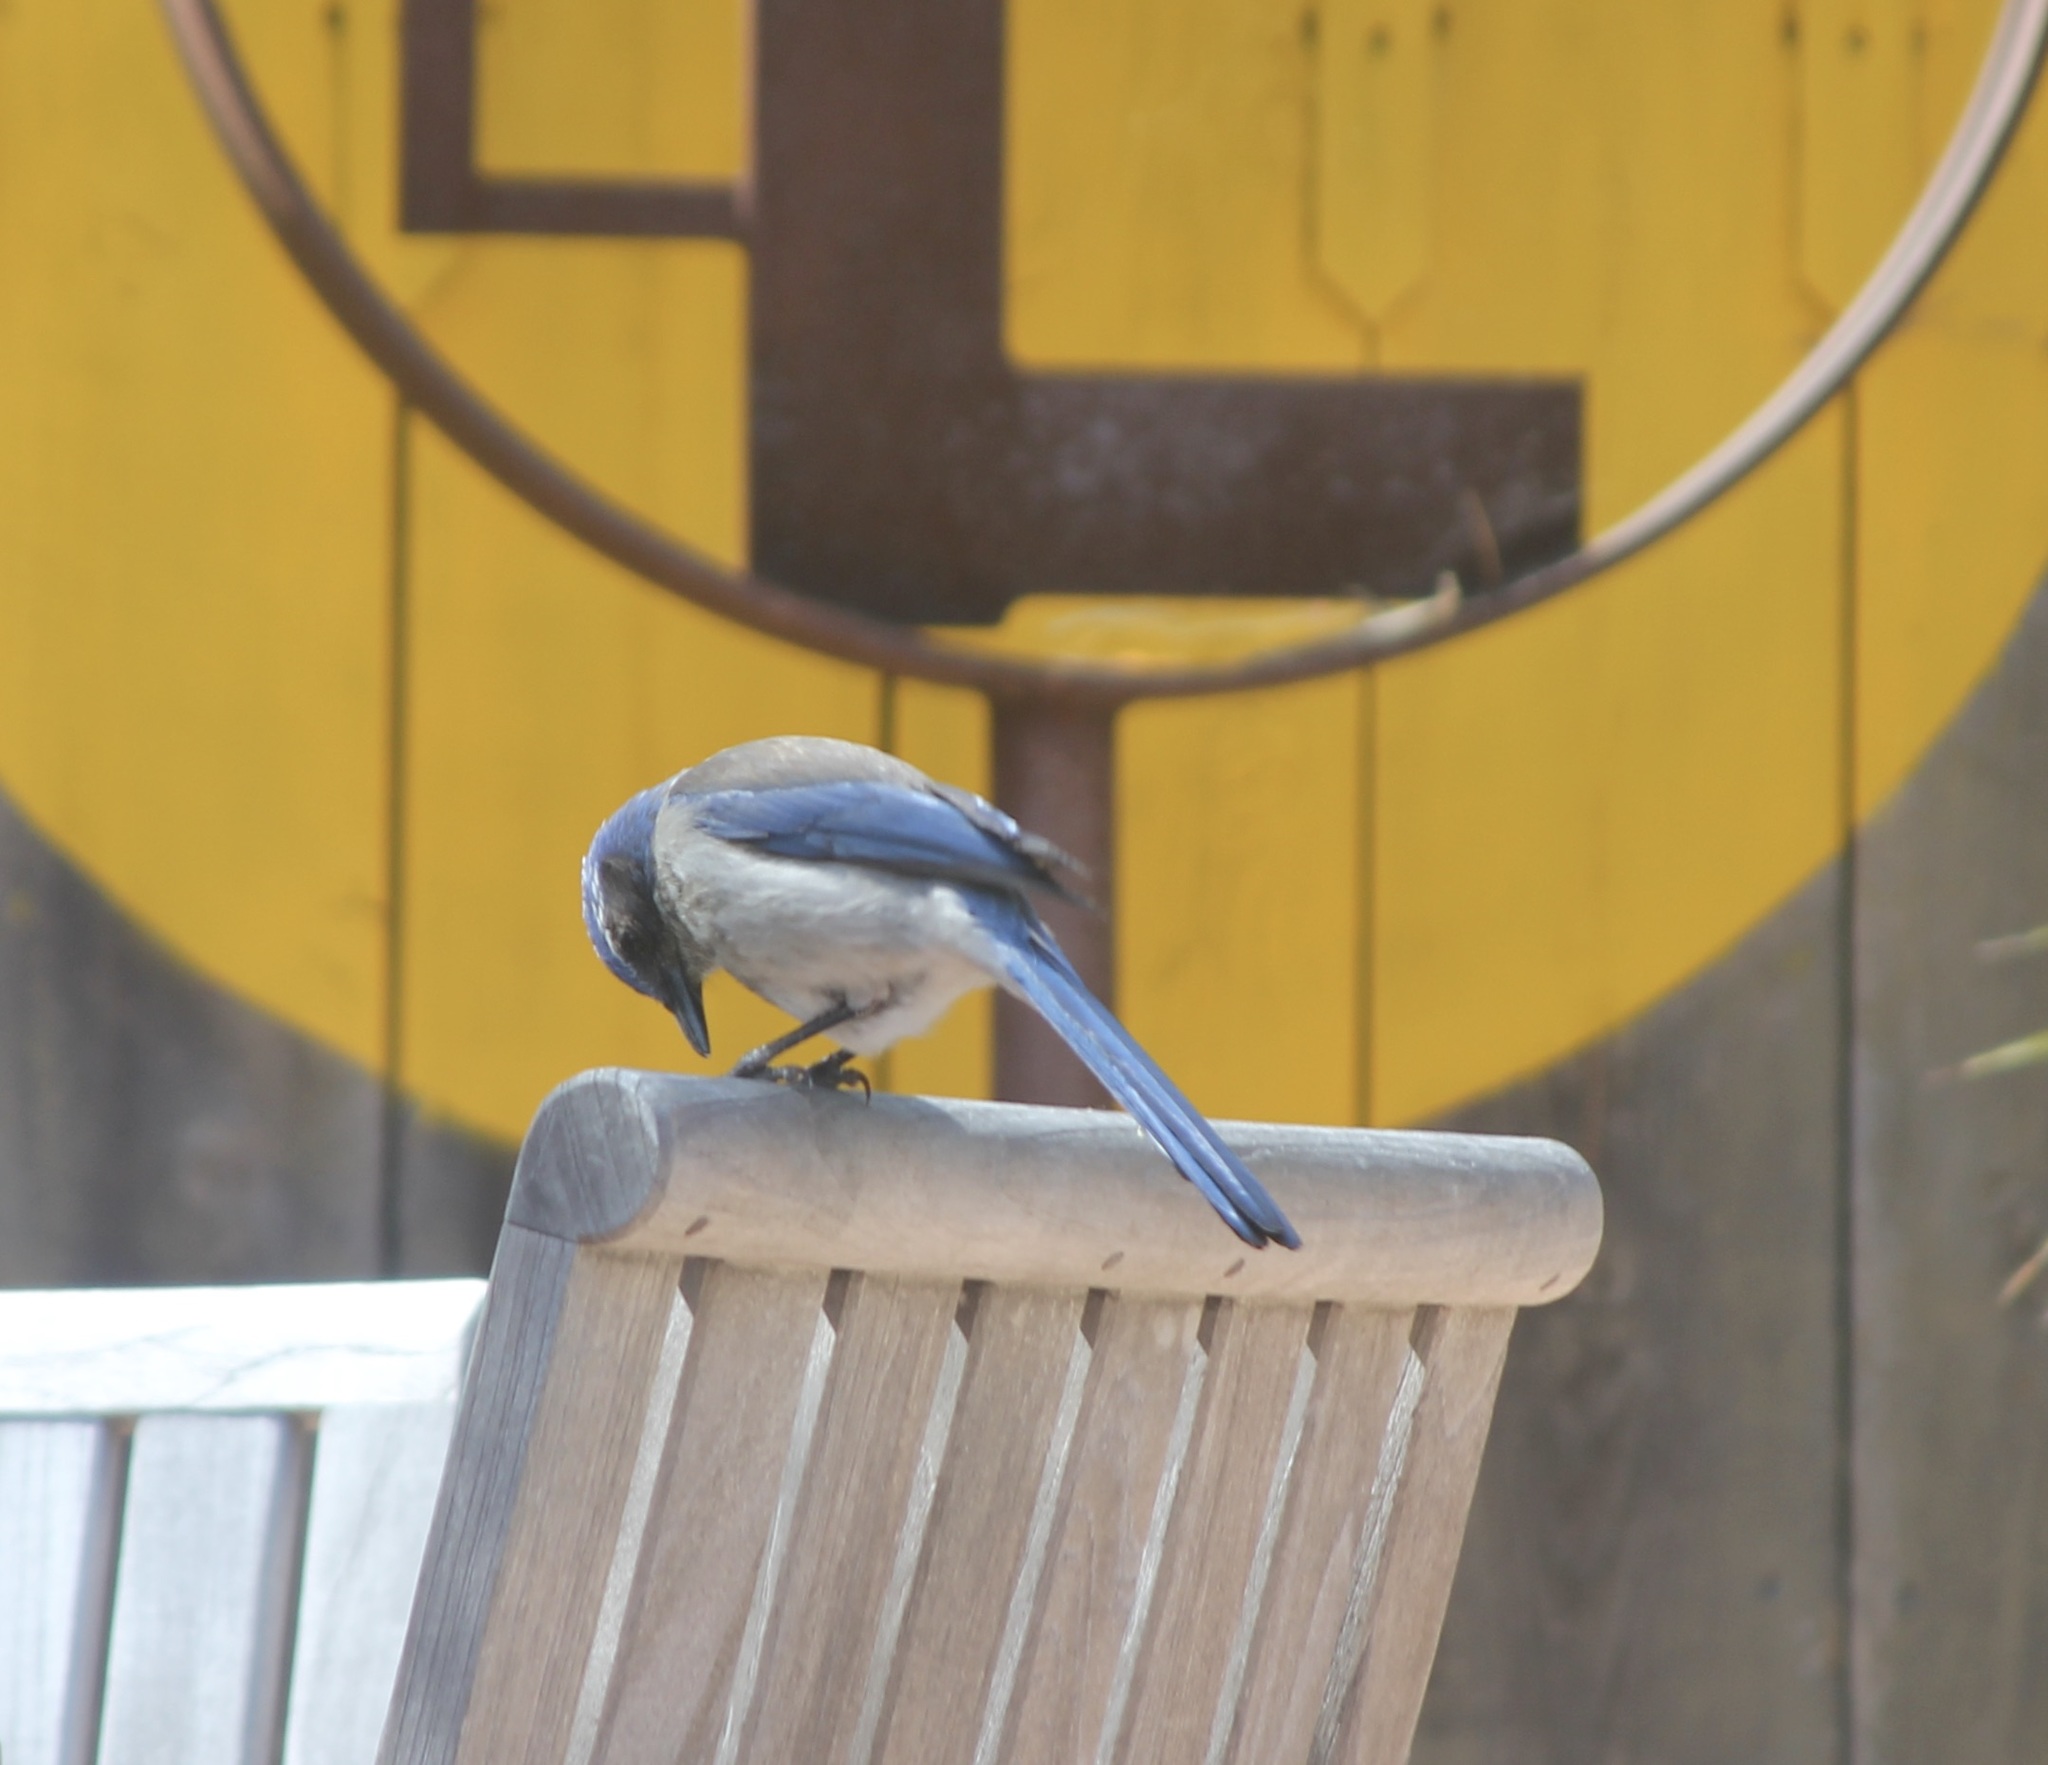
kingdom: Animalia
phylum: Chordata
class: Aves
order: Passeriformes
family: Corvidae
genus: Aphelocoma
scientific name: Aphelocoma californica
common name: California scrub-jay
